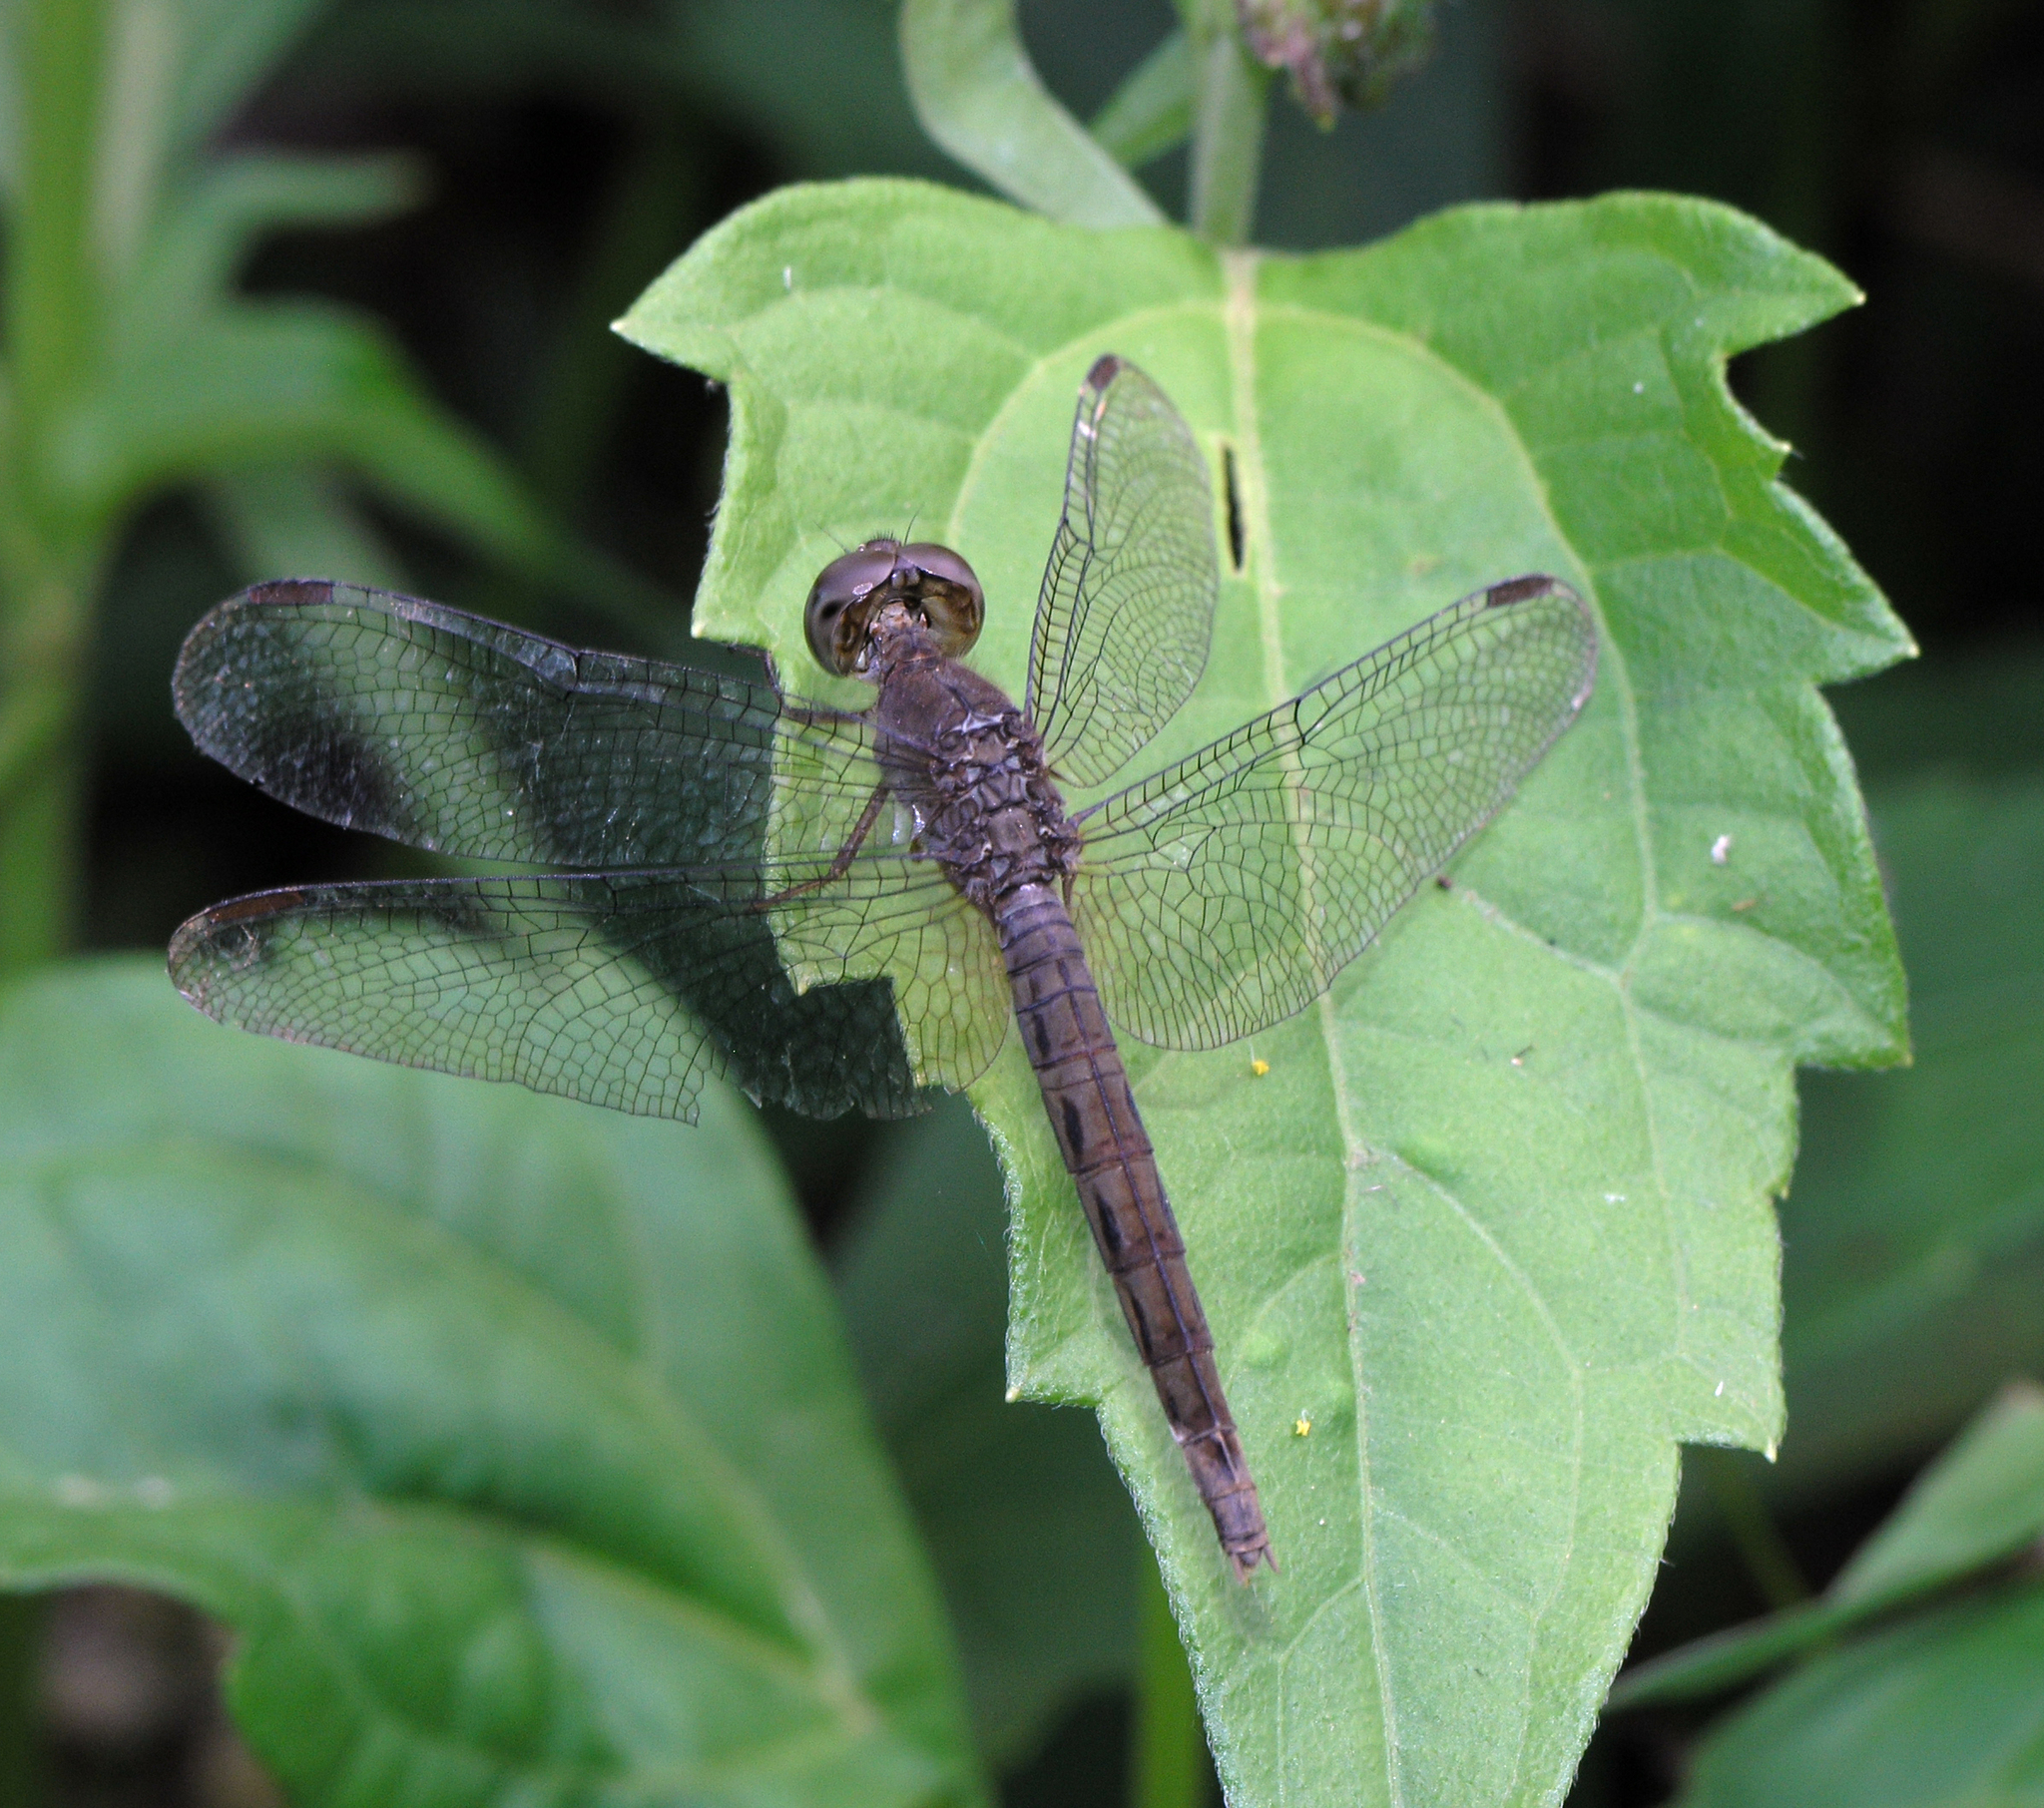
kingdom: Animalia
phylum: Arthropoda
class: Insecta
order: Odonata
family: Libellulidae
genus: Neurothemis
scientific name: Neurothemis fluctuans
